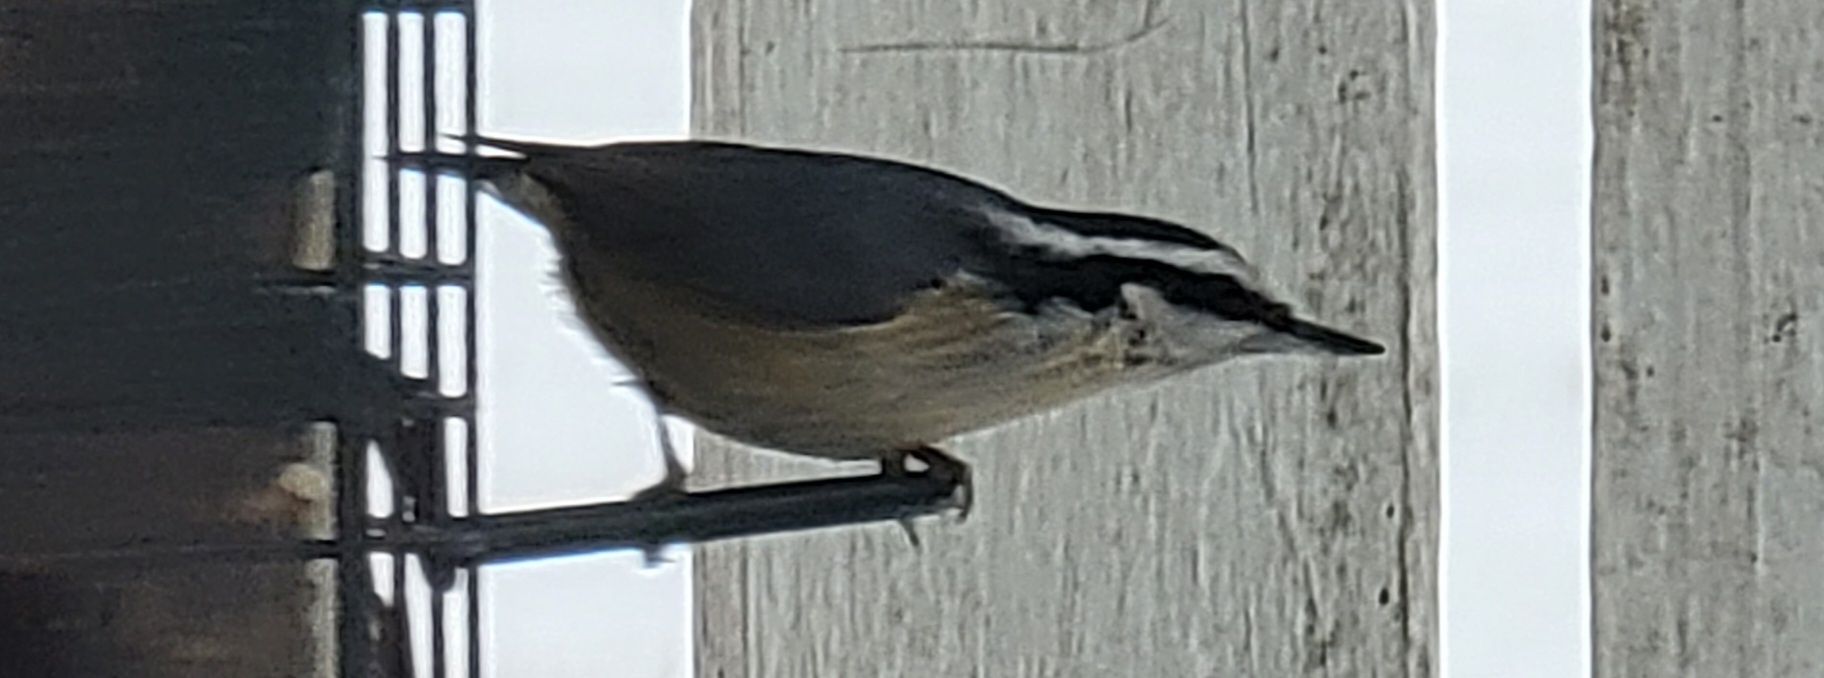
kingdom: Animalia
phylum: Chordata
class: Aves
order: Passeriformes
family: Sittidae
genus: Sitta
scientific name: Sitta canadensis
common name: Red-breasted nuthatch
